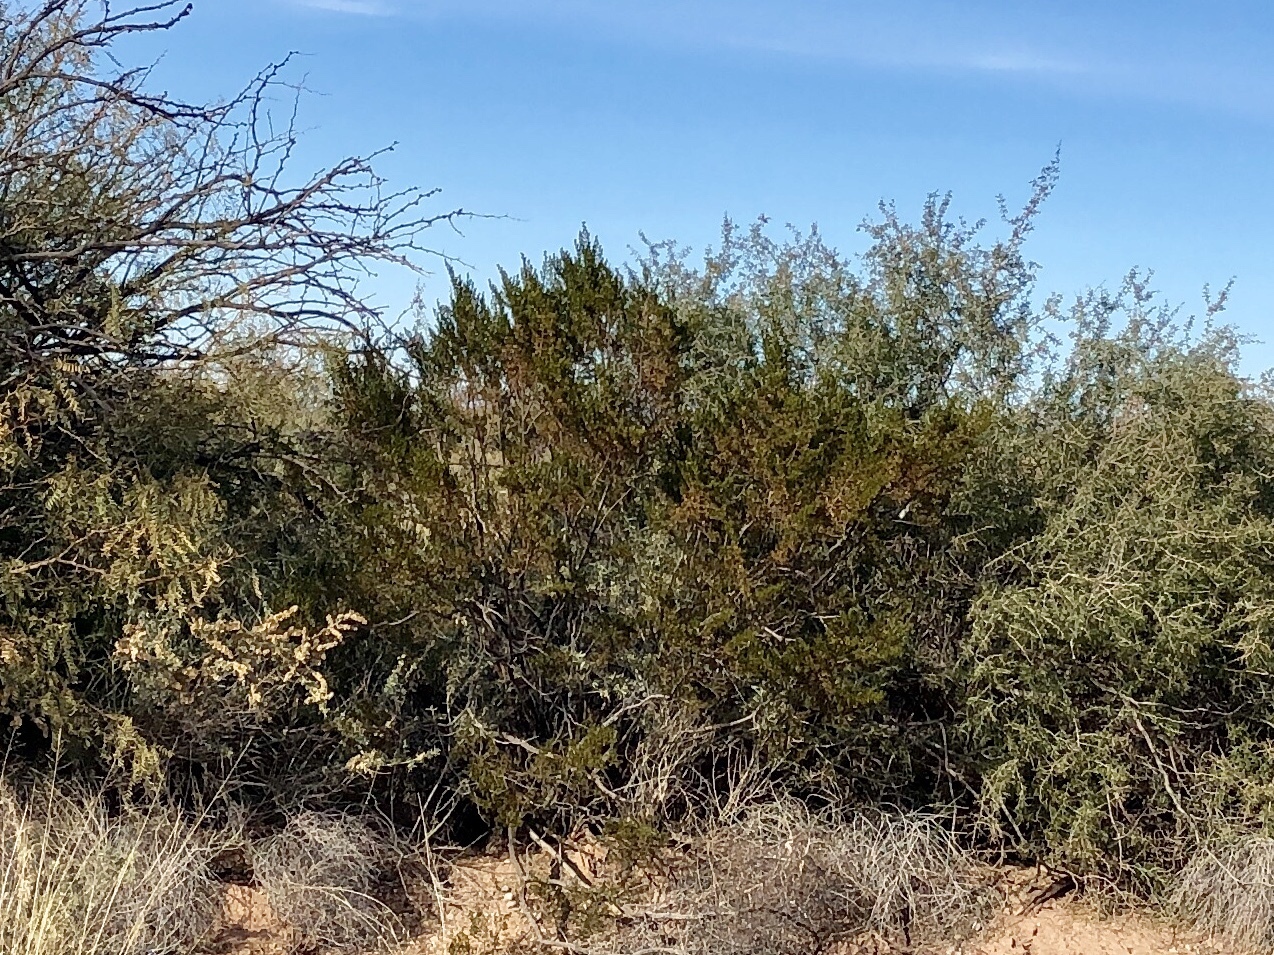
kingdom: Plantae
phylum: Tracheophyta
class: Magnoliopsida
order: Zygophyllales
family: Zygophyllaceae
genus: Larrea
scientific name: Larrea tridentata
